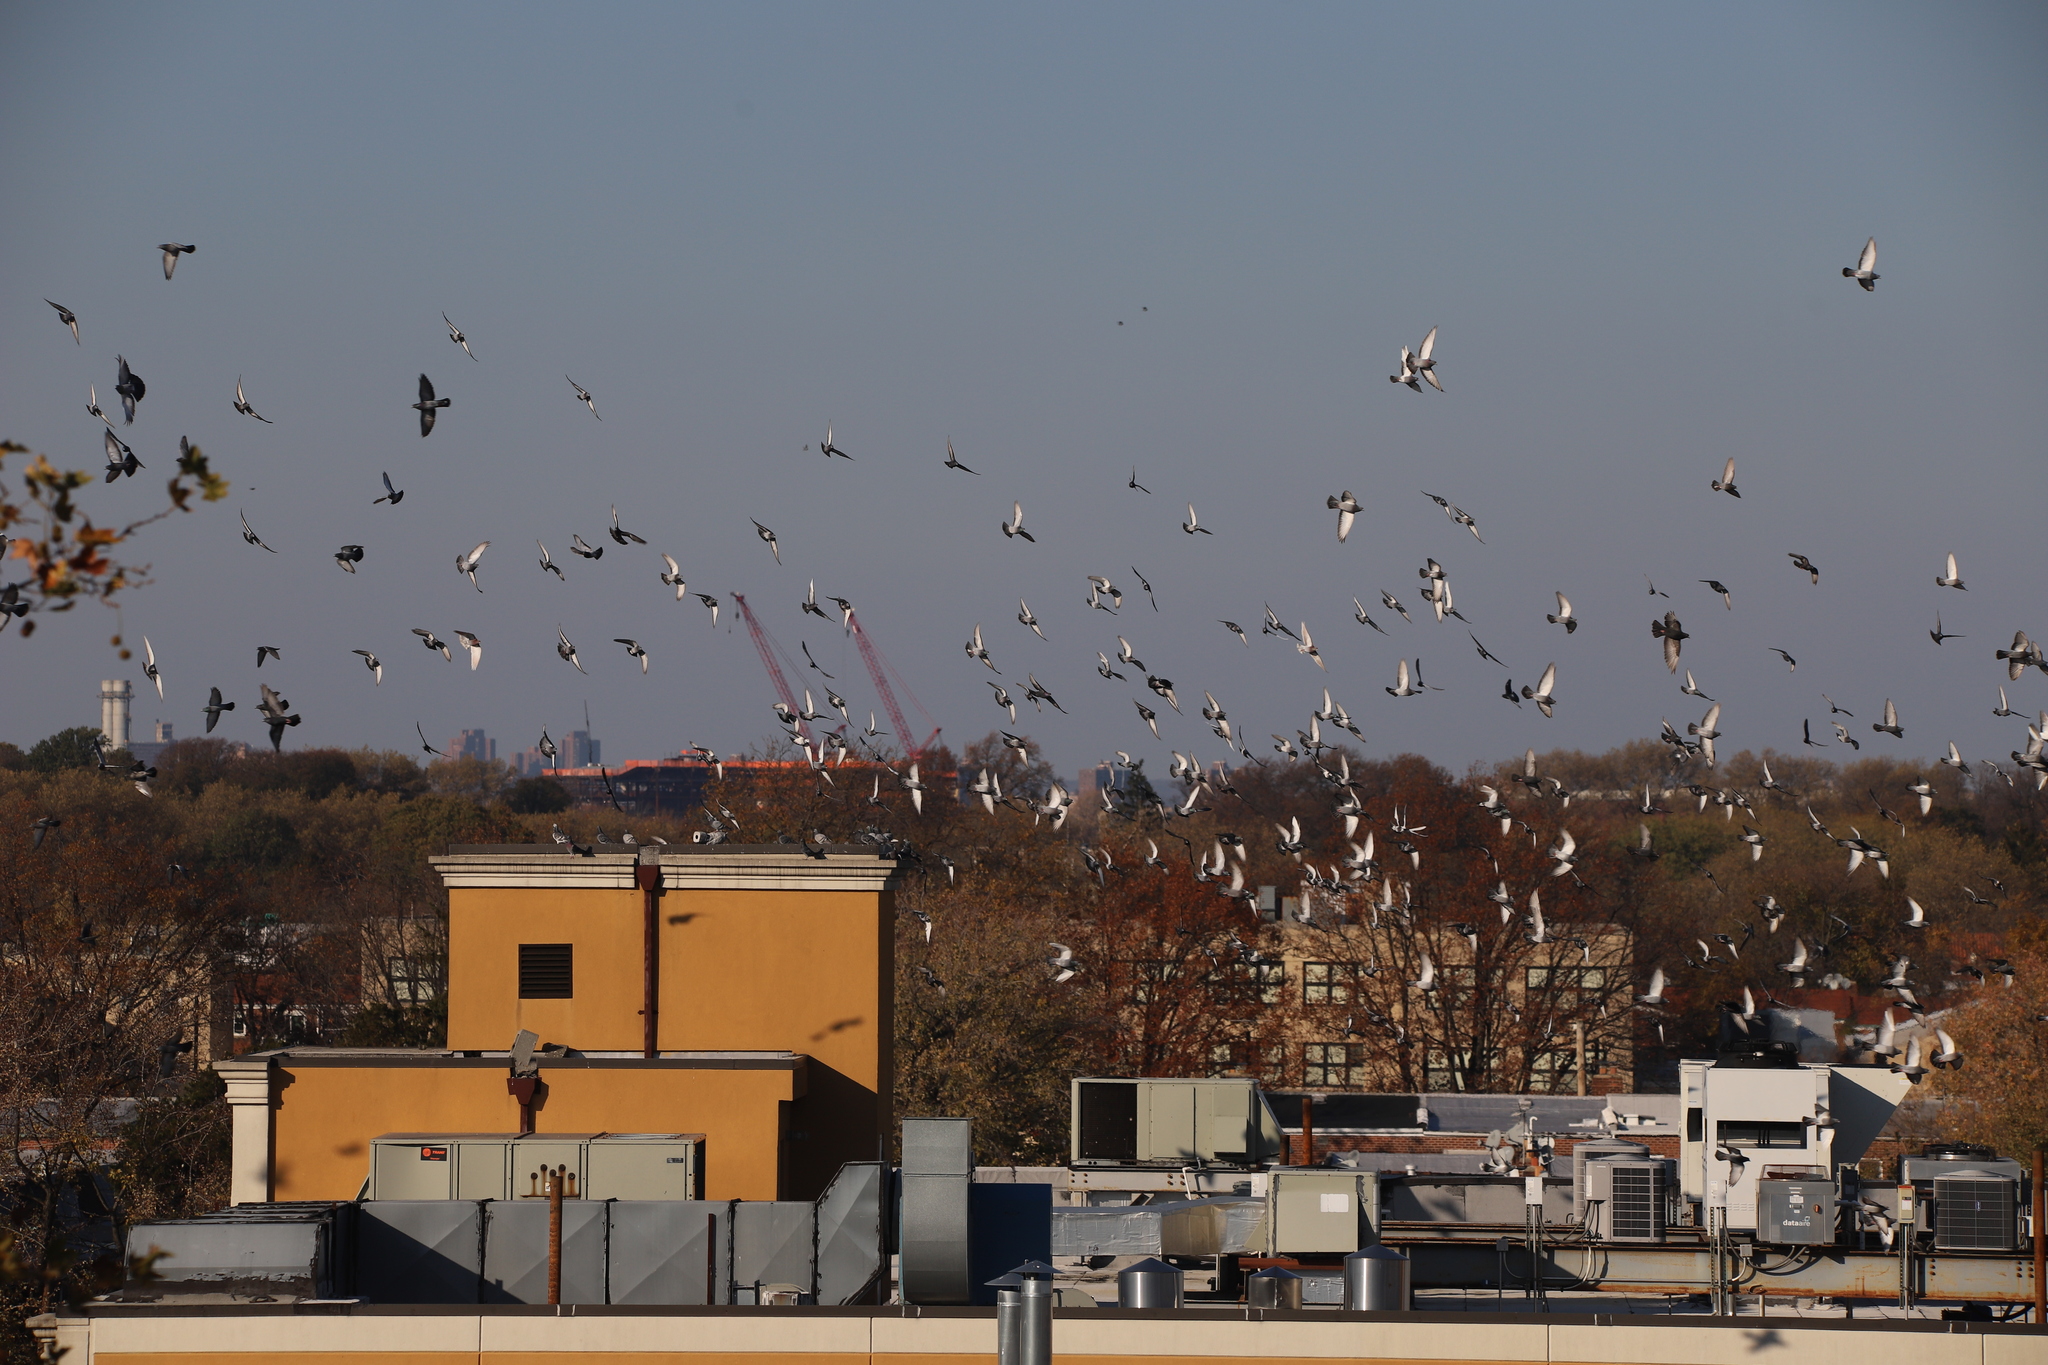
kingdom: Animalia
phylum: Chordata
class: Aves
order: Columbiformes
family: Columbidae
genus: Columba
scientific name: Columba livia
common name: Rock pigeon
